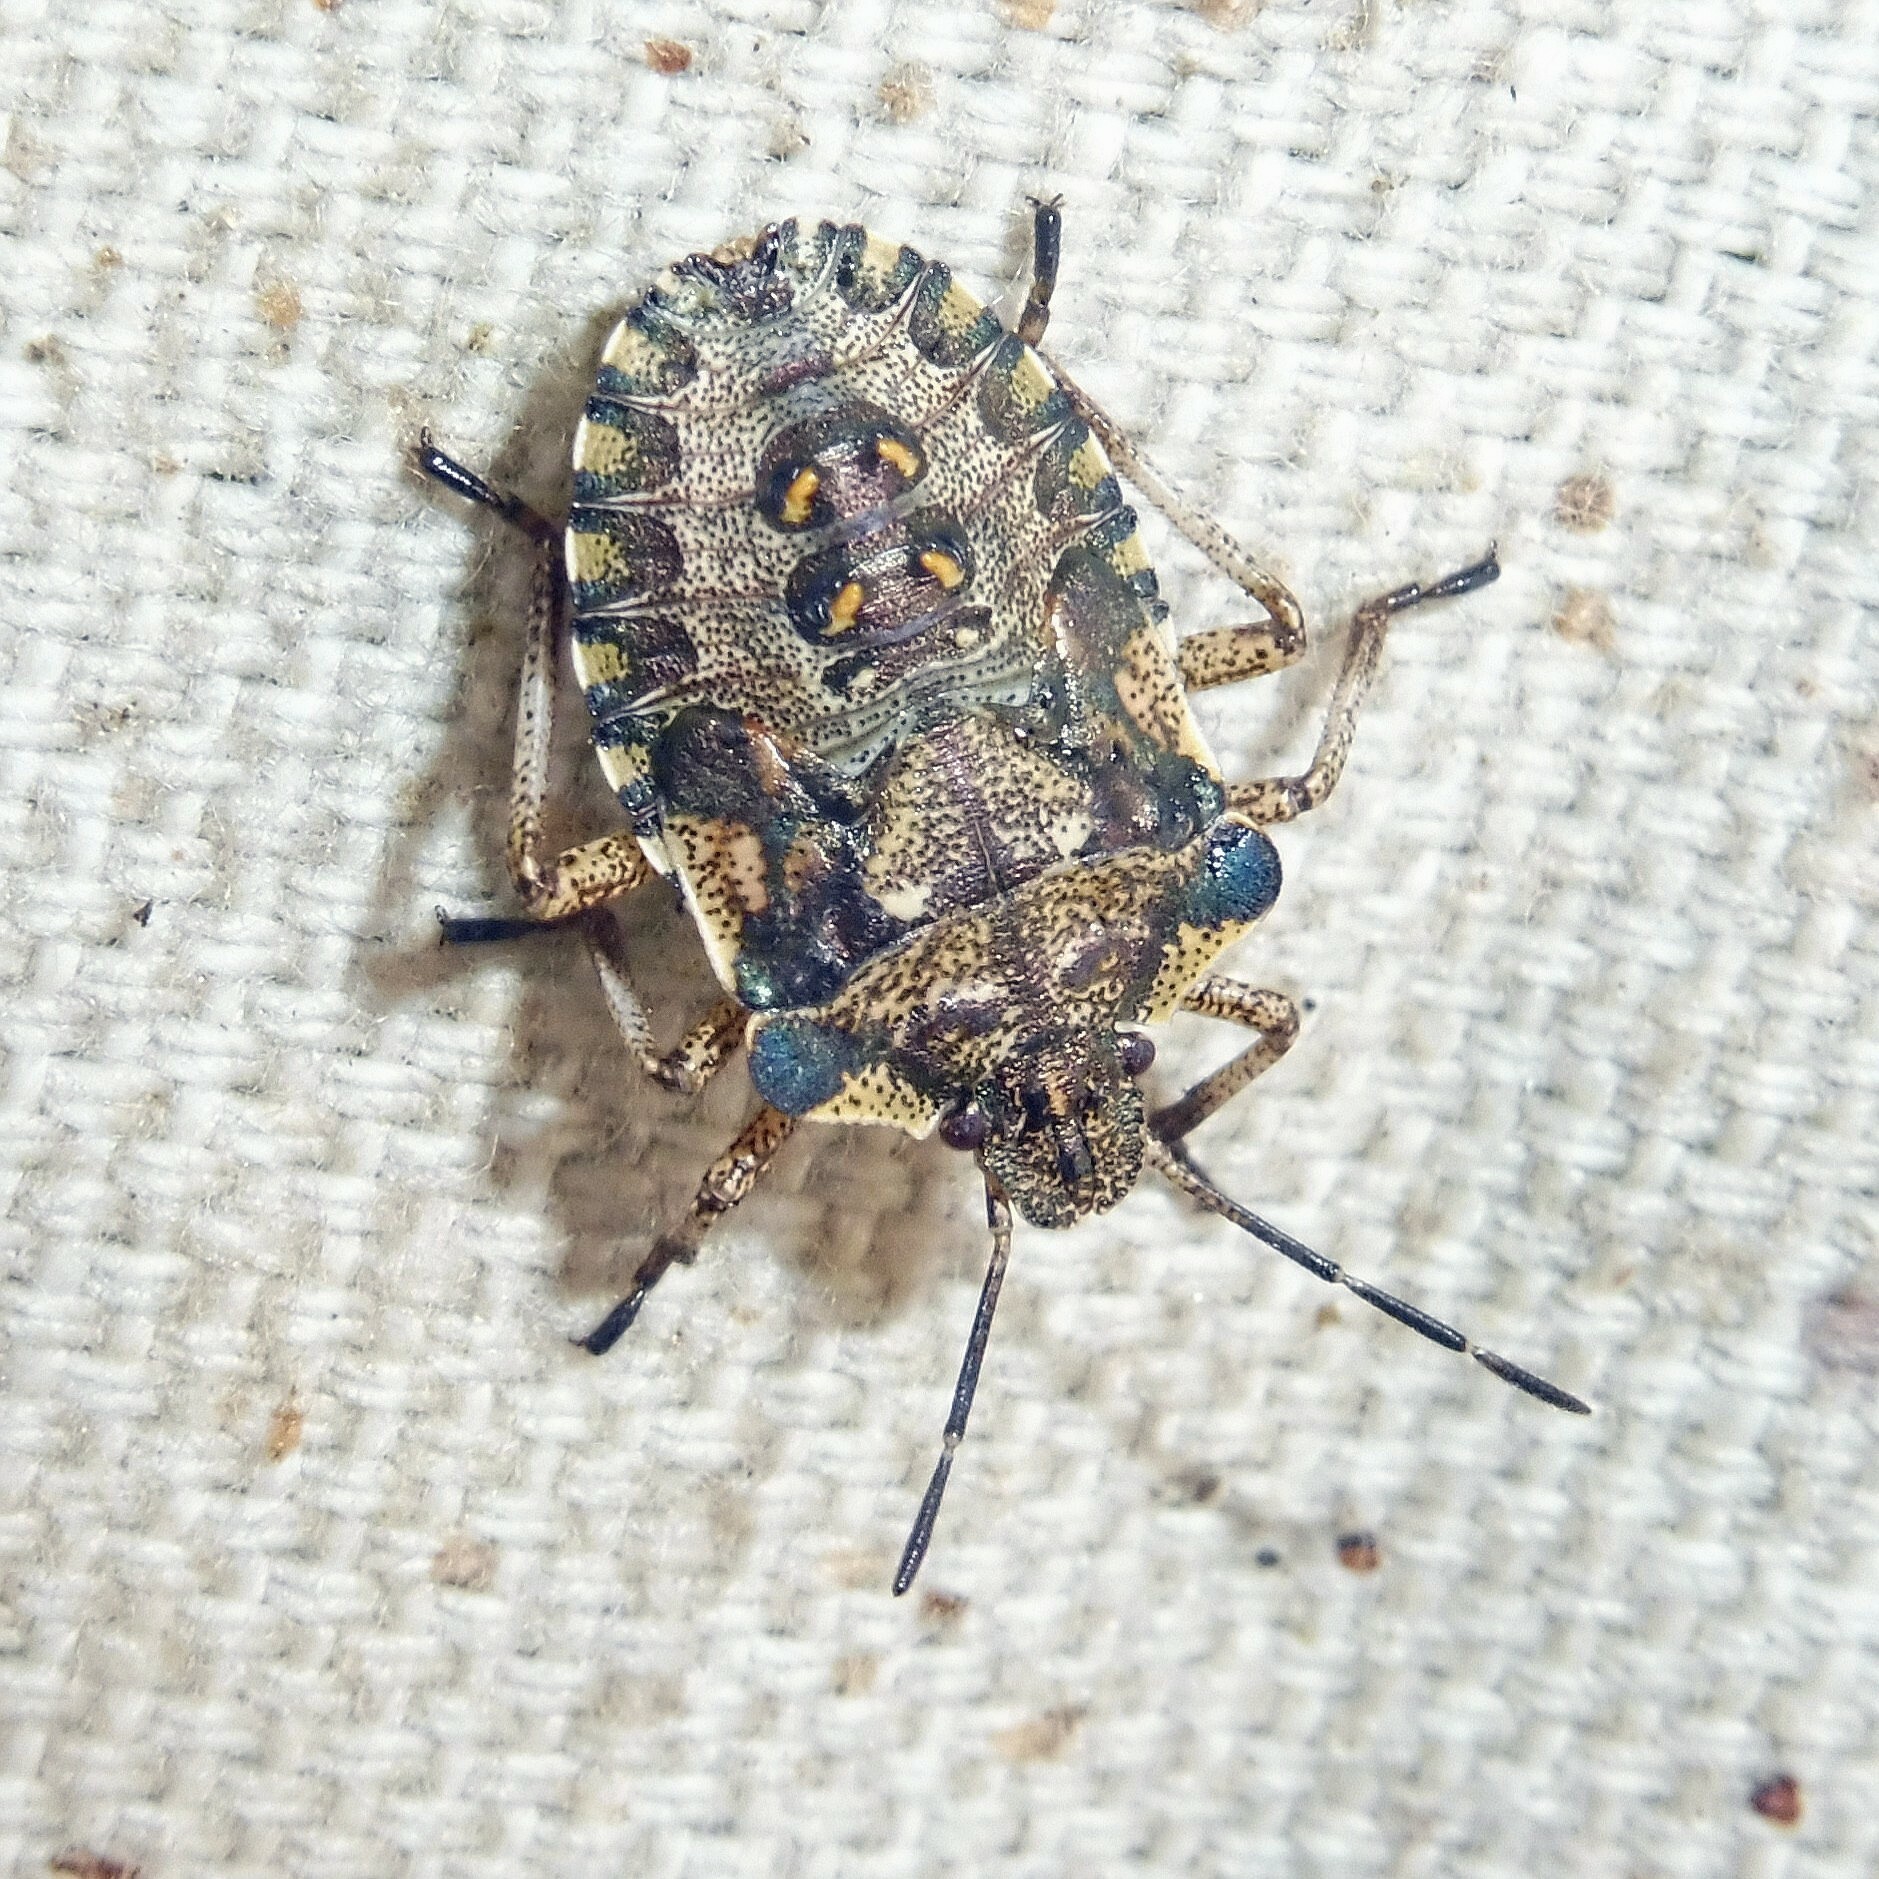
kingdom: Animalia
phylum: Arthropoda
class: Insecta
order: Hemiptera
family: Pentatomidae
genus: Pentatoma
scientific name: Pentatoma rufipes
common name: Forest bug
